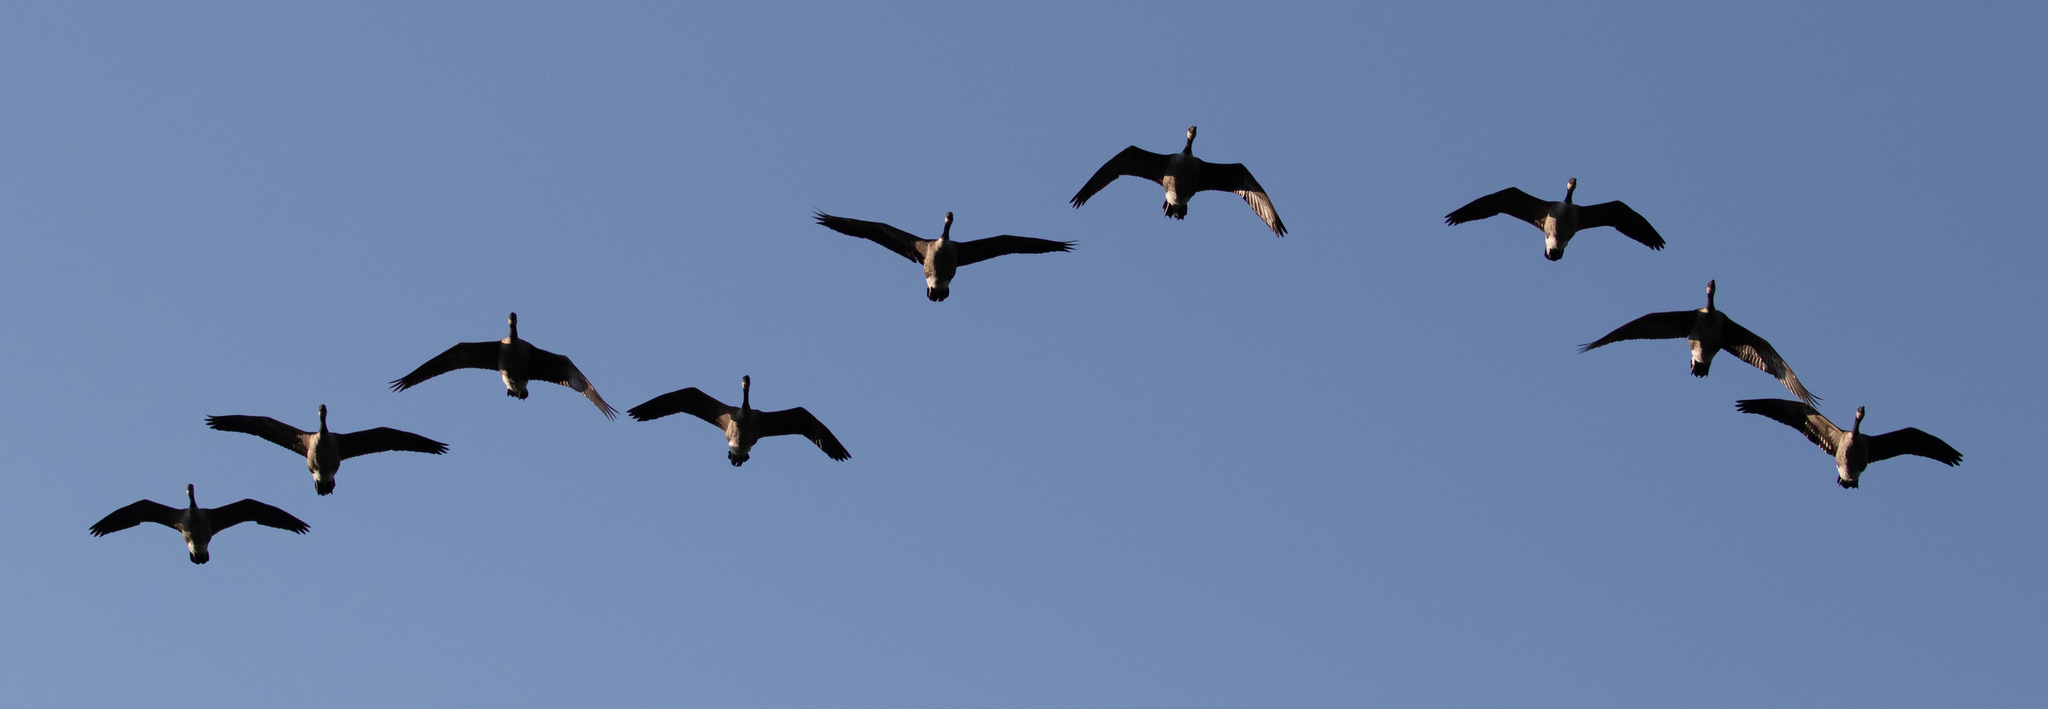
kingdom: Animalia
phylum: Chordata
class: Aves
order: Anseriformes
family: Anatidae
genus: Branta
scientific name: Branta canadensis
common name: Canada goose
